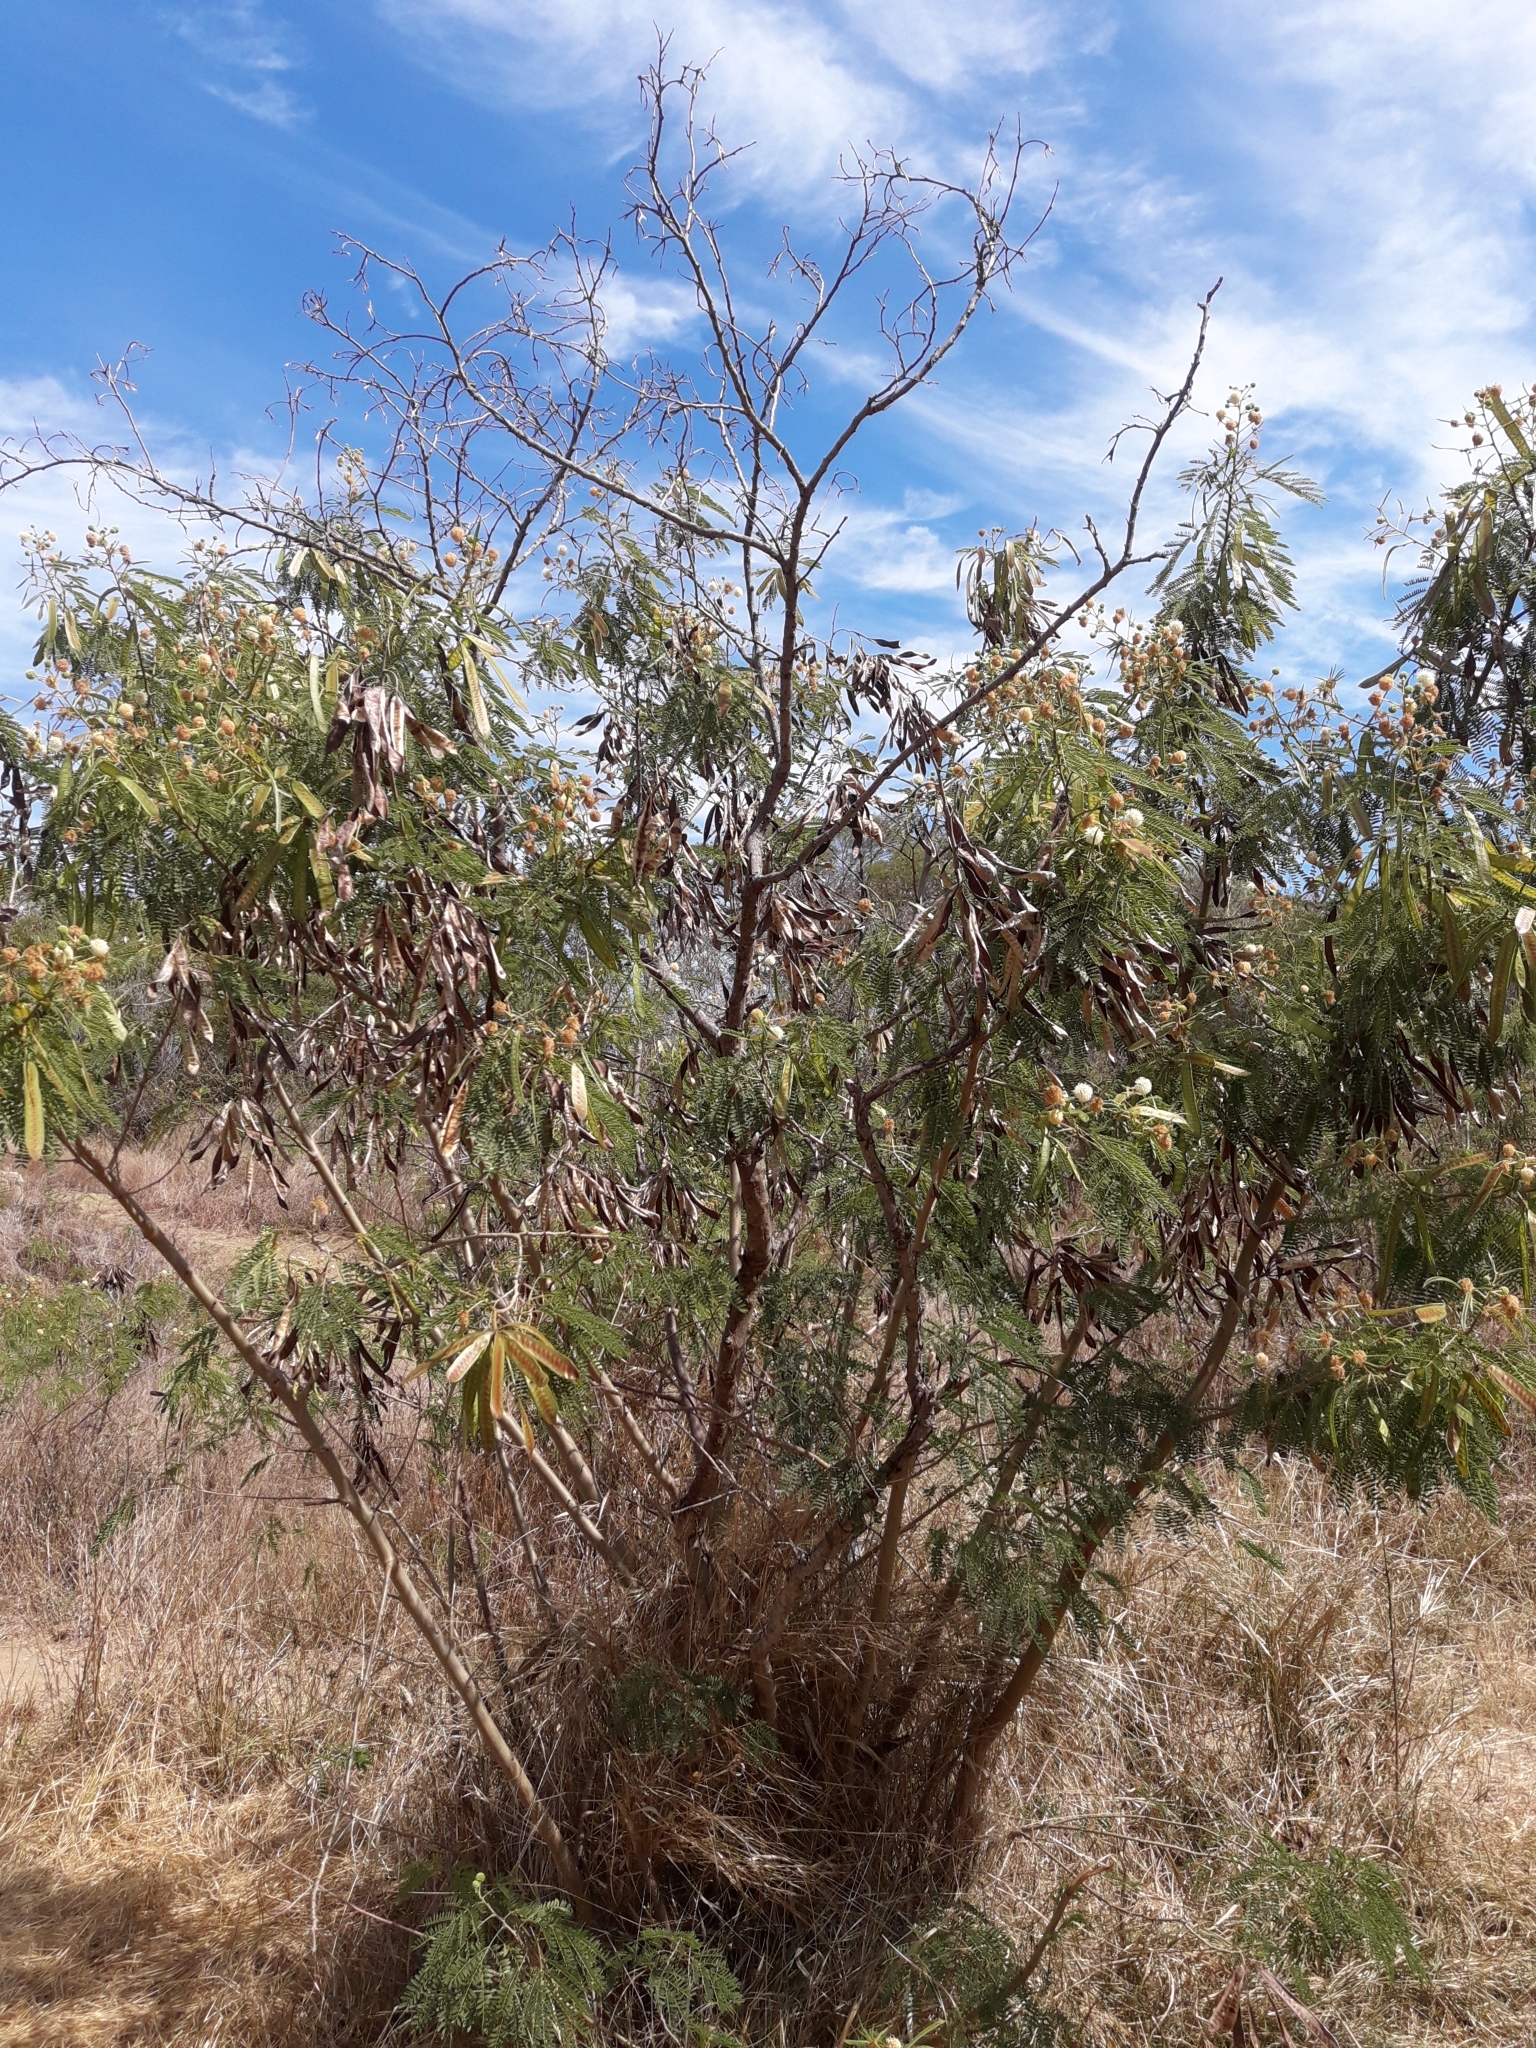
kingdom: Plantae
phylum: Tracheophyta
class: Magnoliopsida
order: Fabales
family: Fabaceae
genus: Leucaena
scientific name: Leucaena leucocephala
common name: White leadtree
